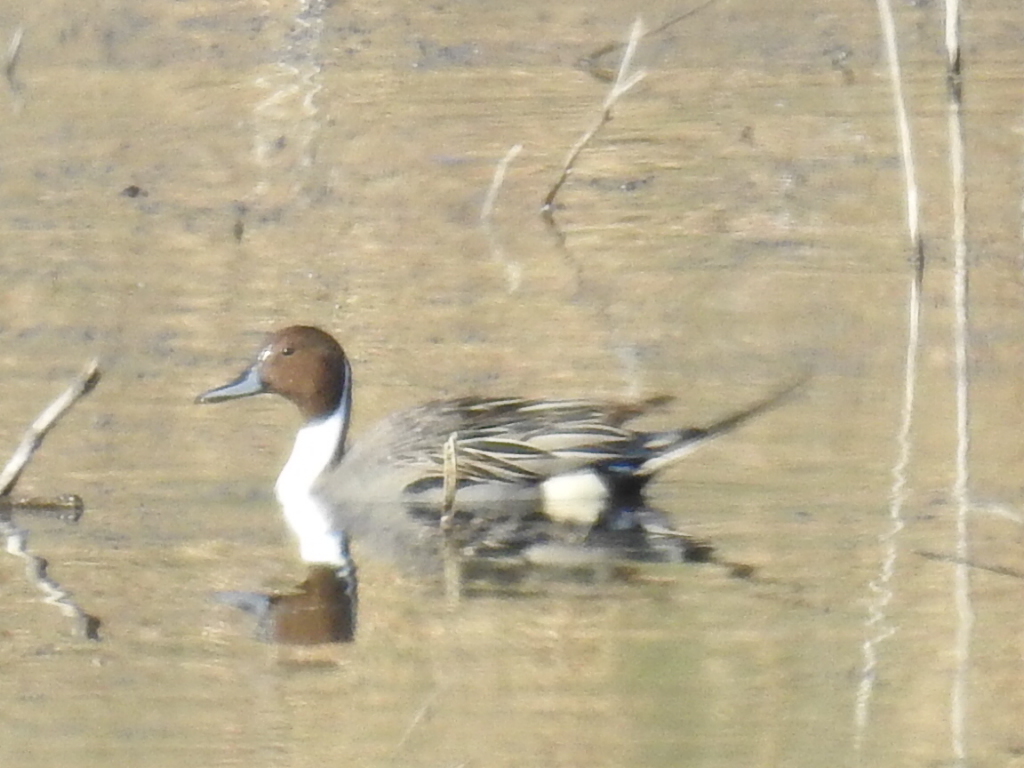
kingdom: Animalia
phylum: Chordata
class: Aves
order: Anseriformes
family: Anatidae
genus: Anas
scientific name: Anas acuta
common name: Northern pintail
